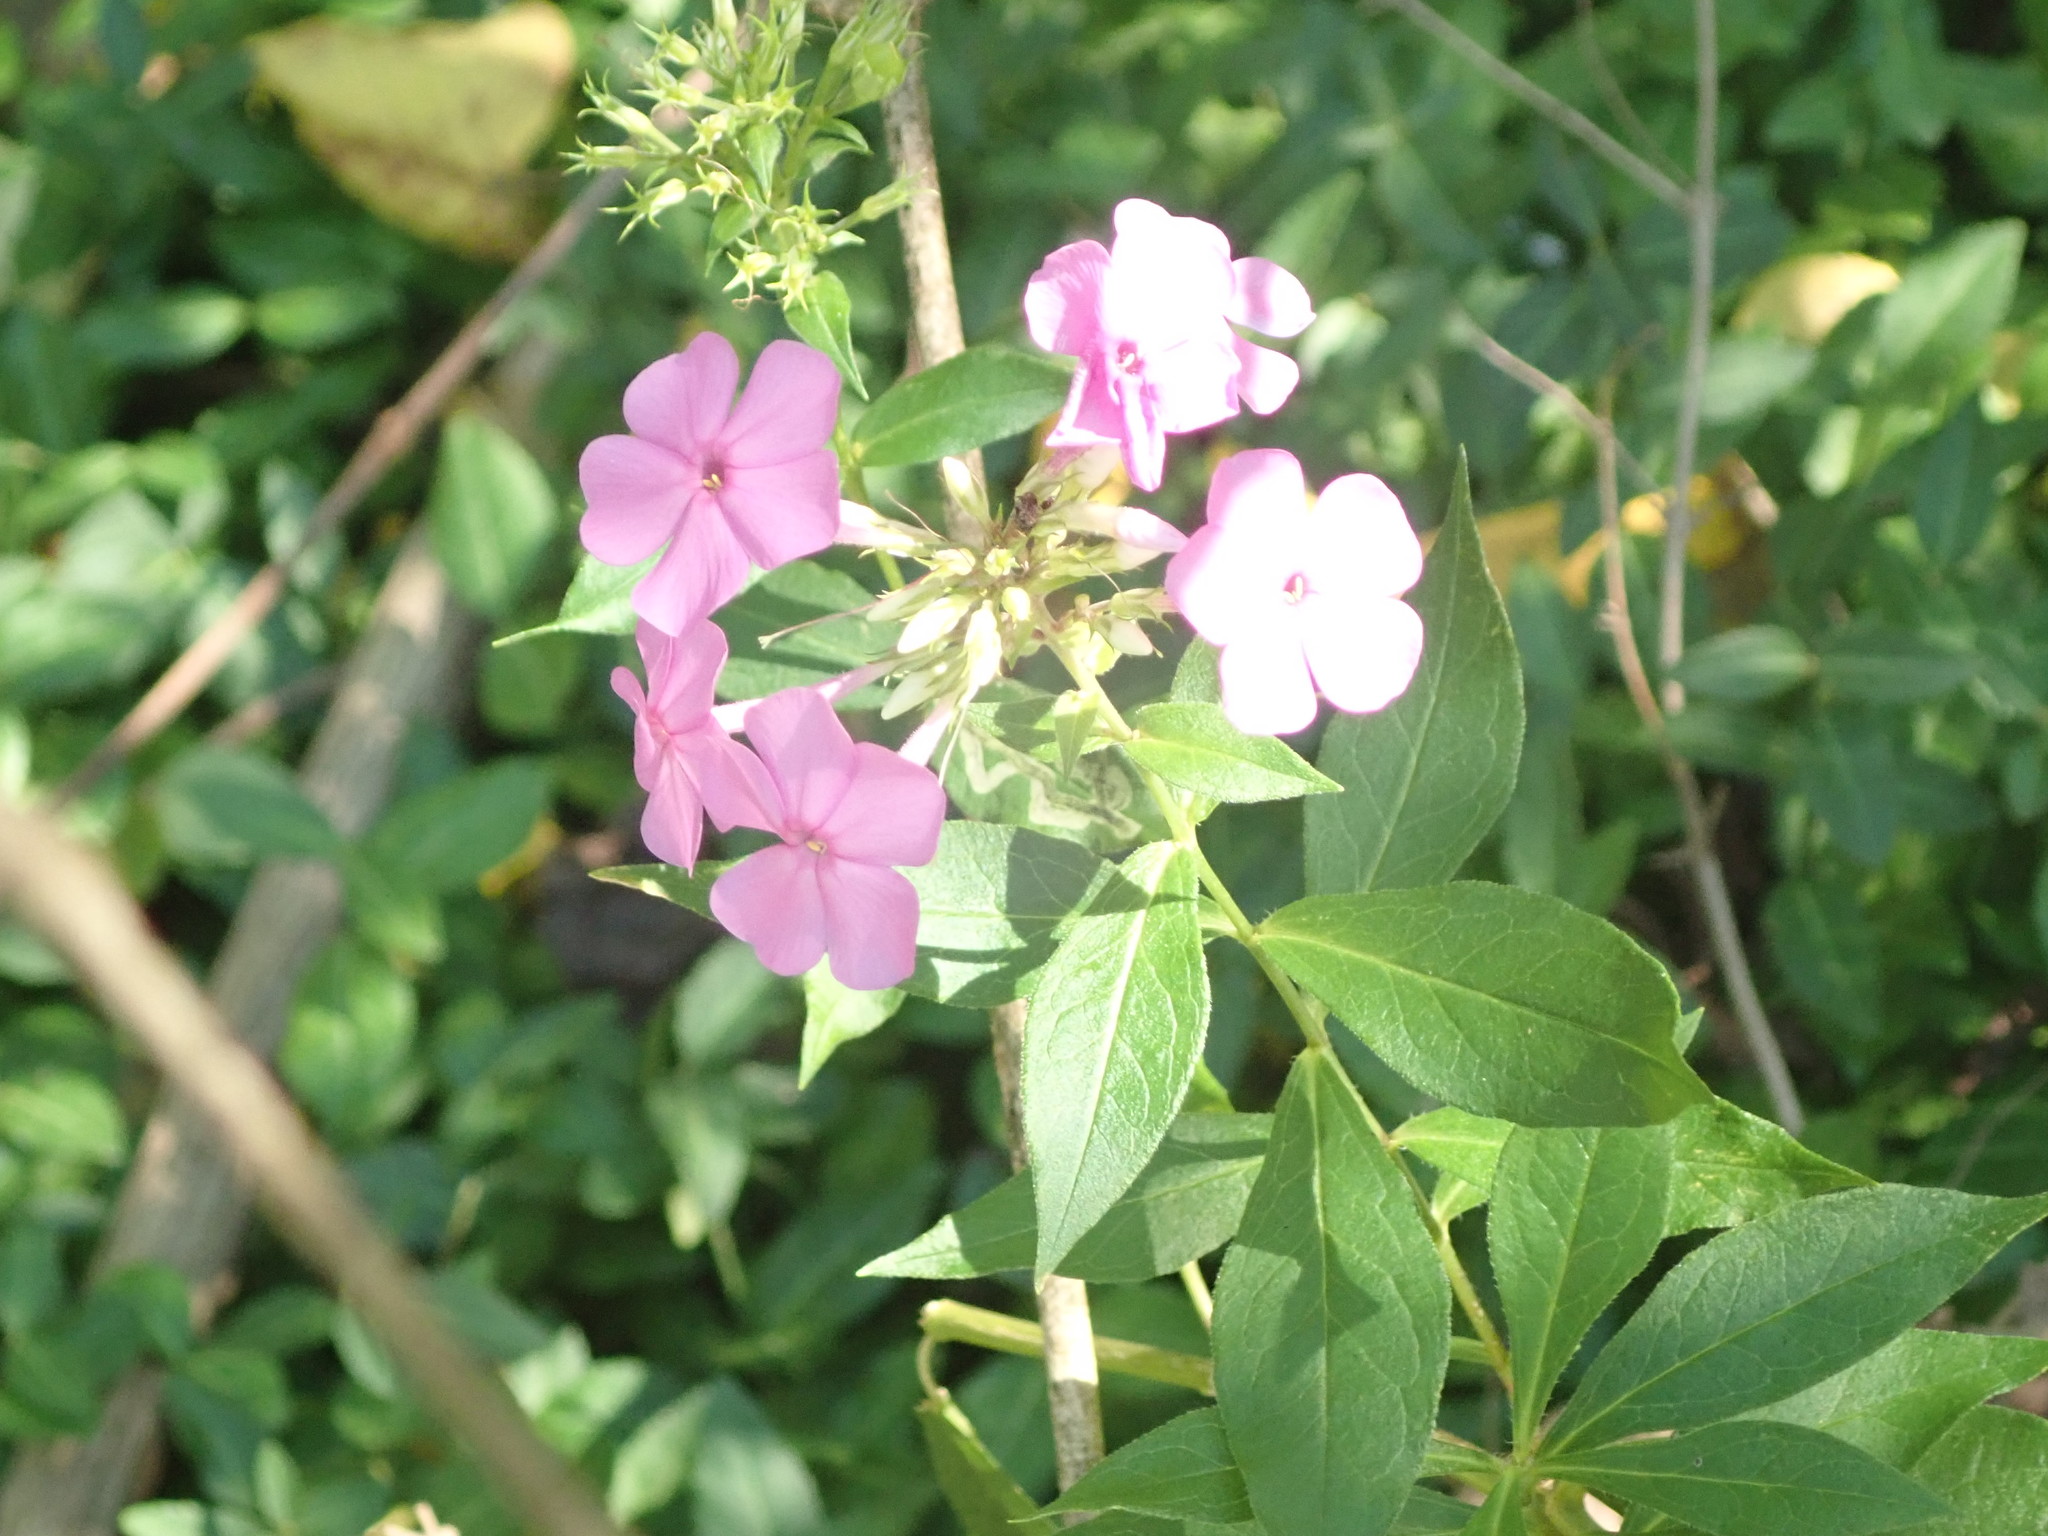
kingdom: Plantae
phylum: Tracheophyta
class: Magnoliopsida
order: Ericales
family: Polemoniaceae
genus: Phlox
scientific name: Phlox paniculata
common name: Fall phlox
